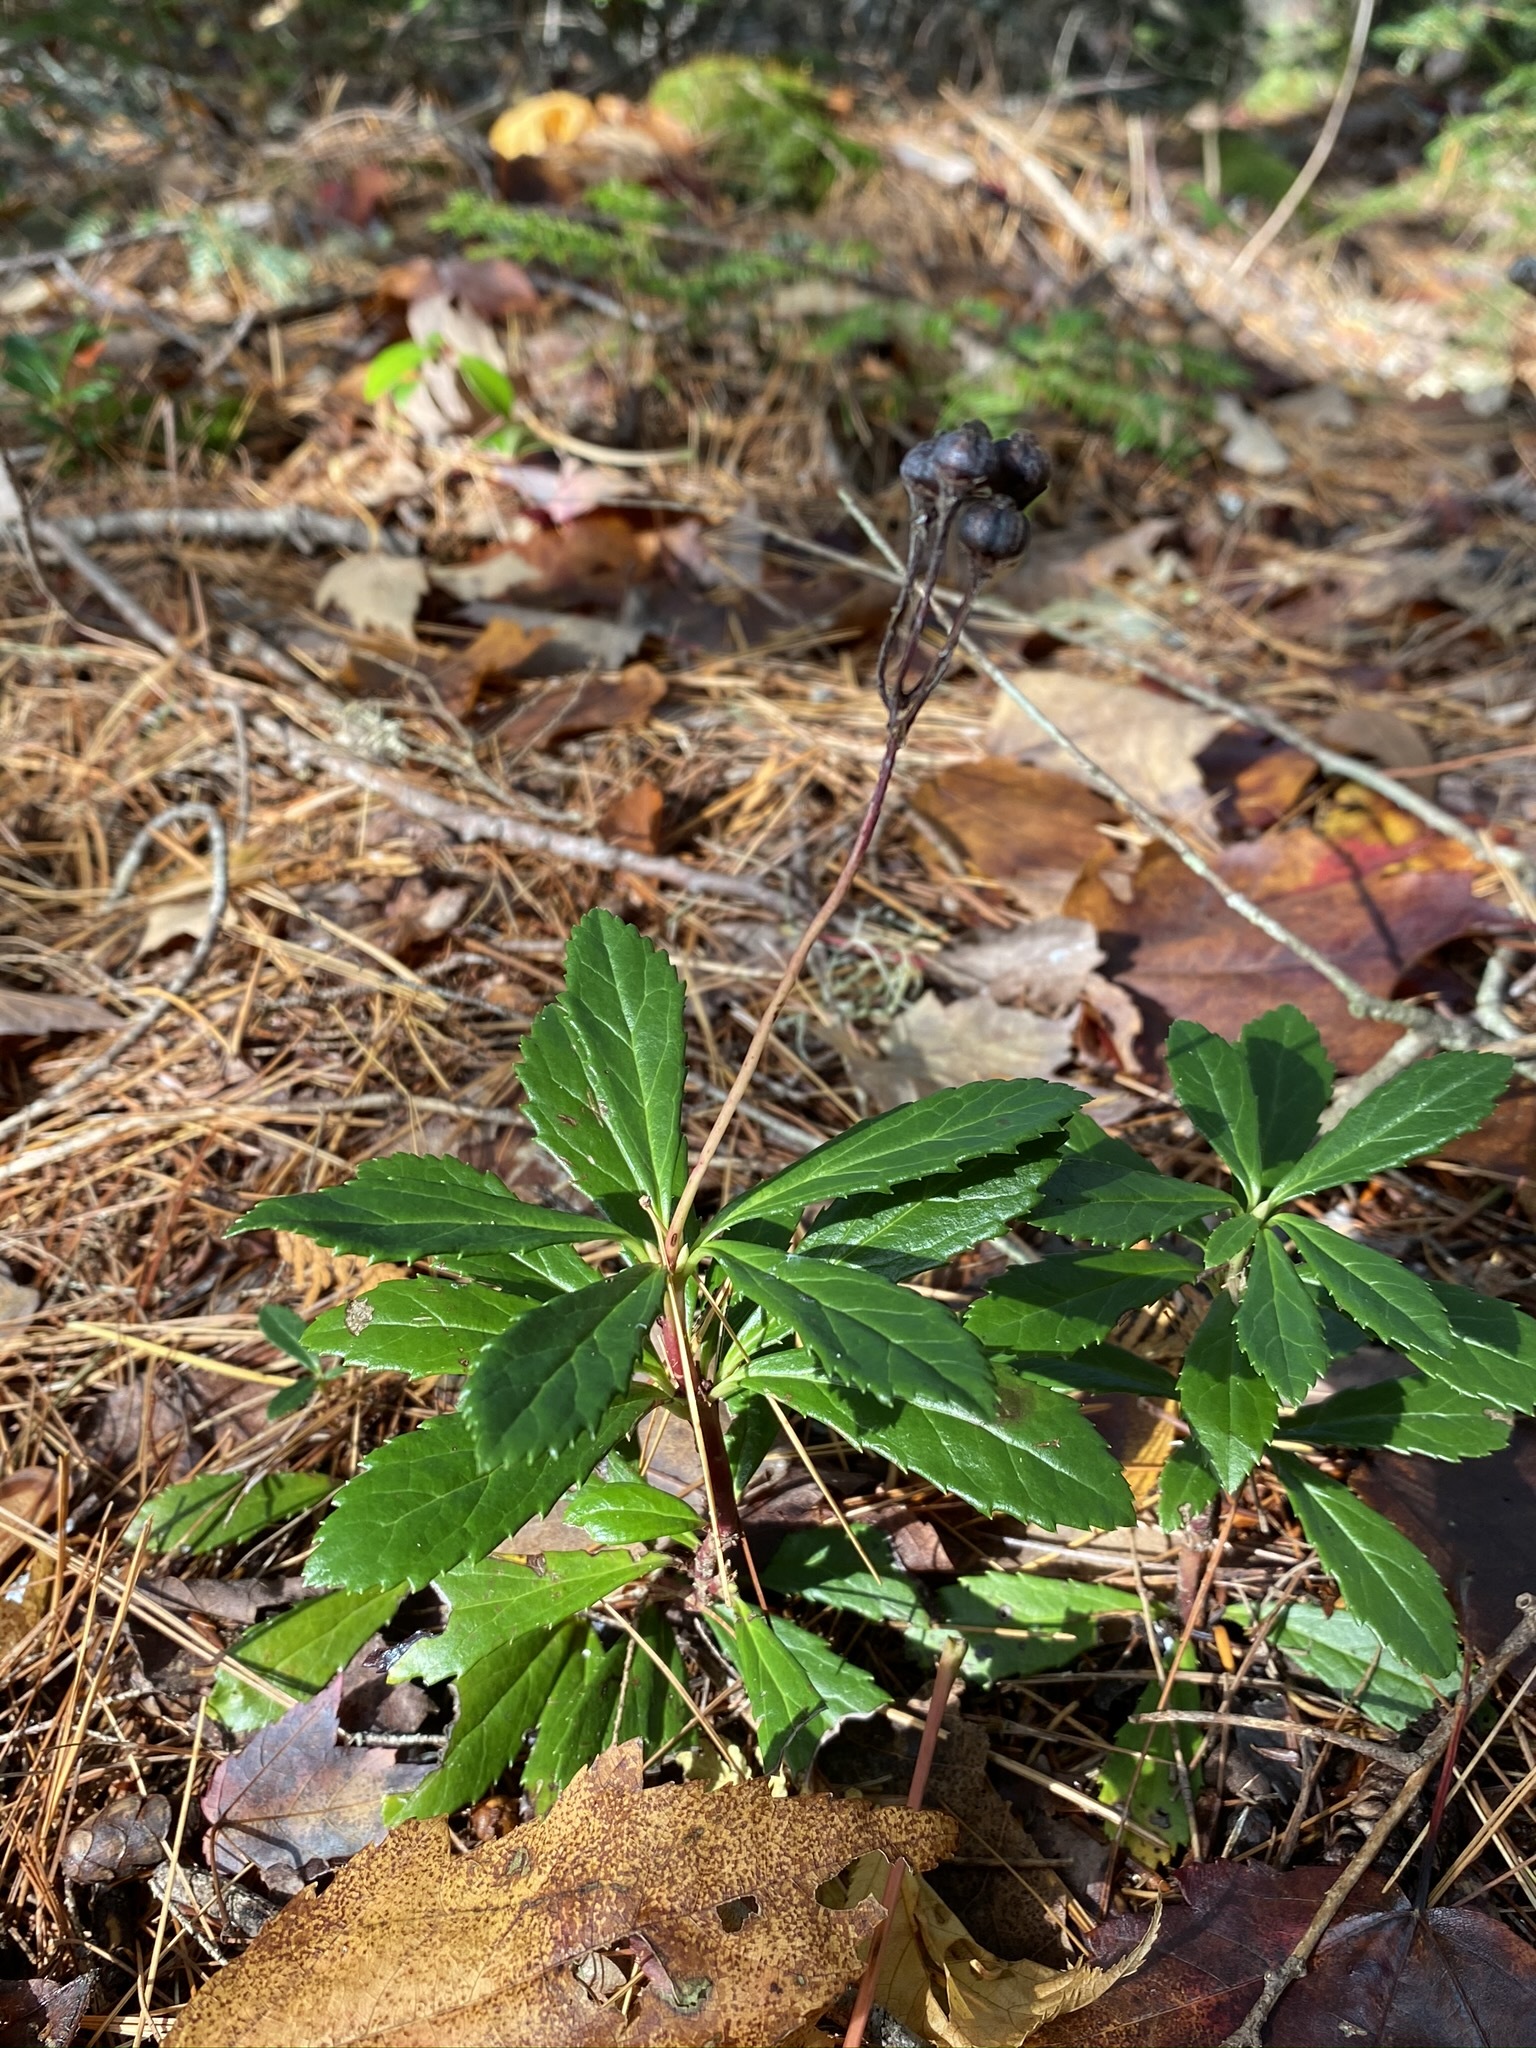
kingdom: Plantae
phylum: Tracheophyta
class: Magnoliopsida
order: Ericales
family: Ericaceae
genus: Chimaphila
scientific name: Chimaphila umbellata
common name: Pipsissewa
